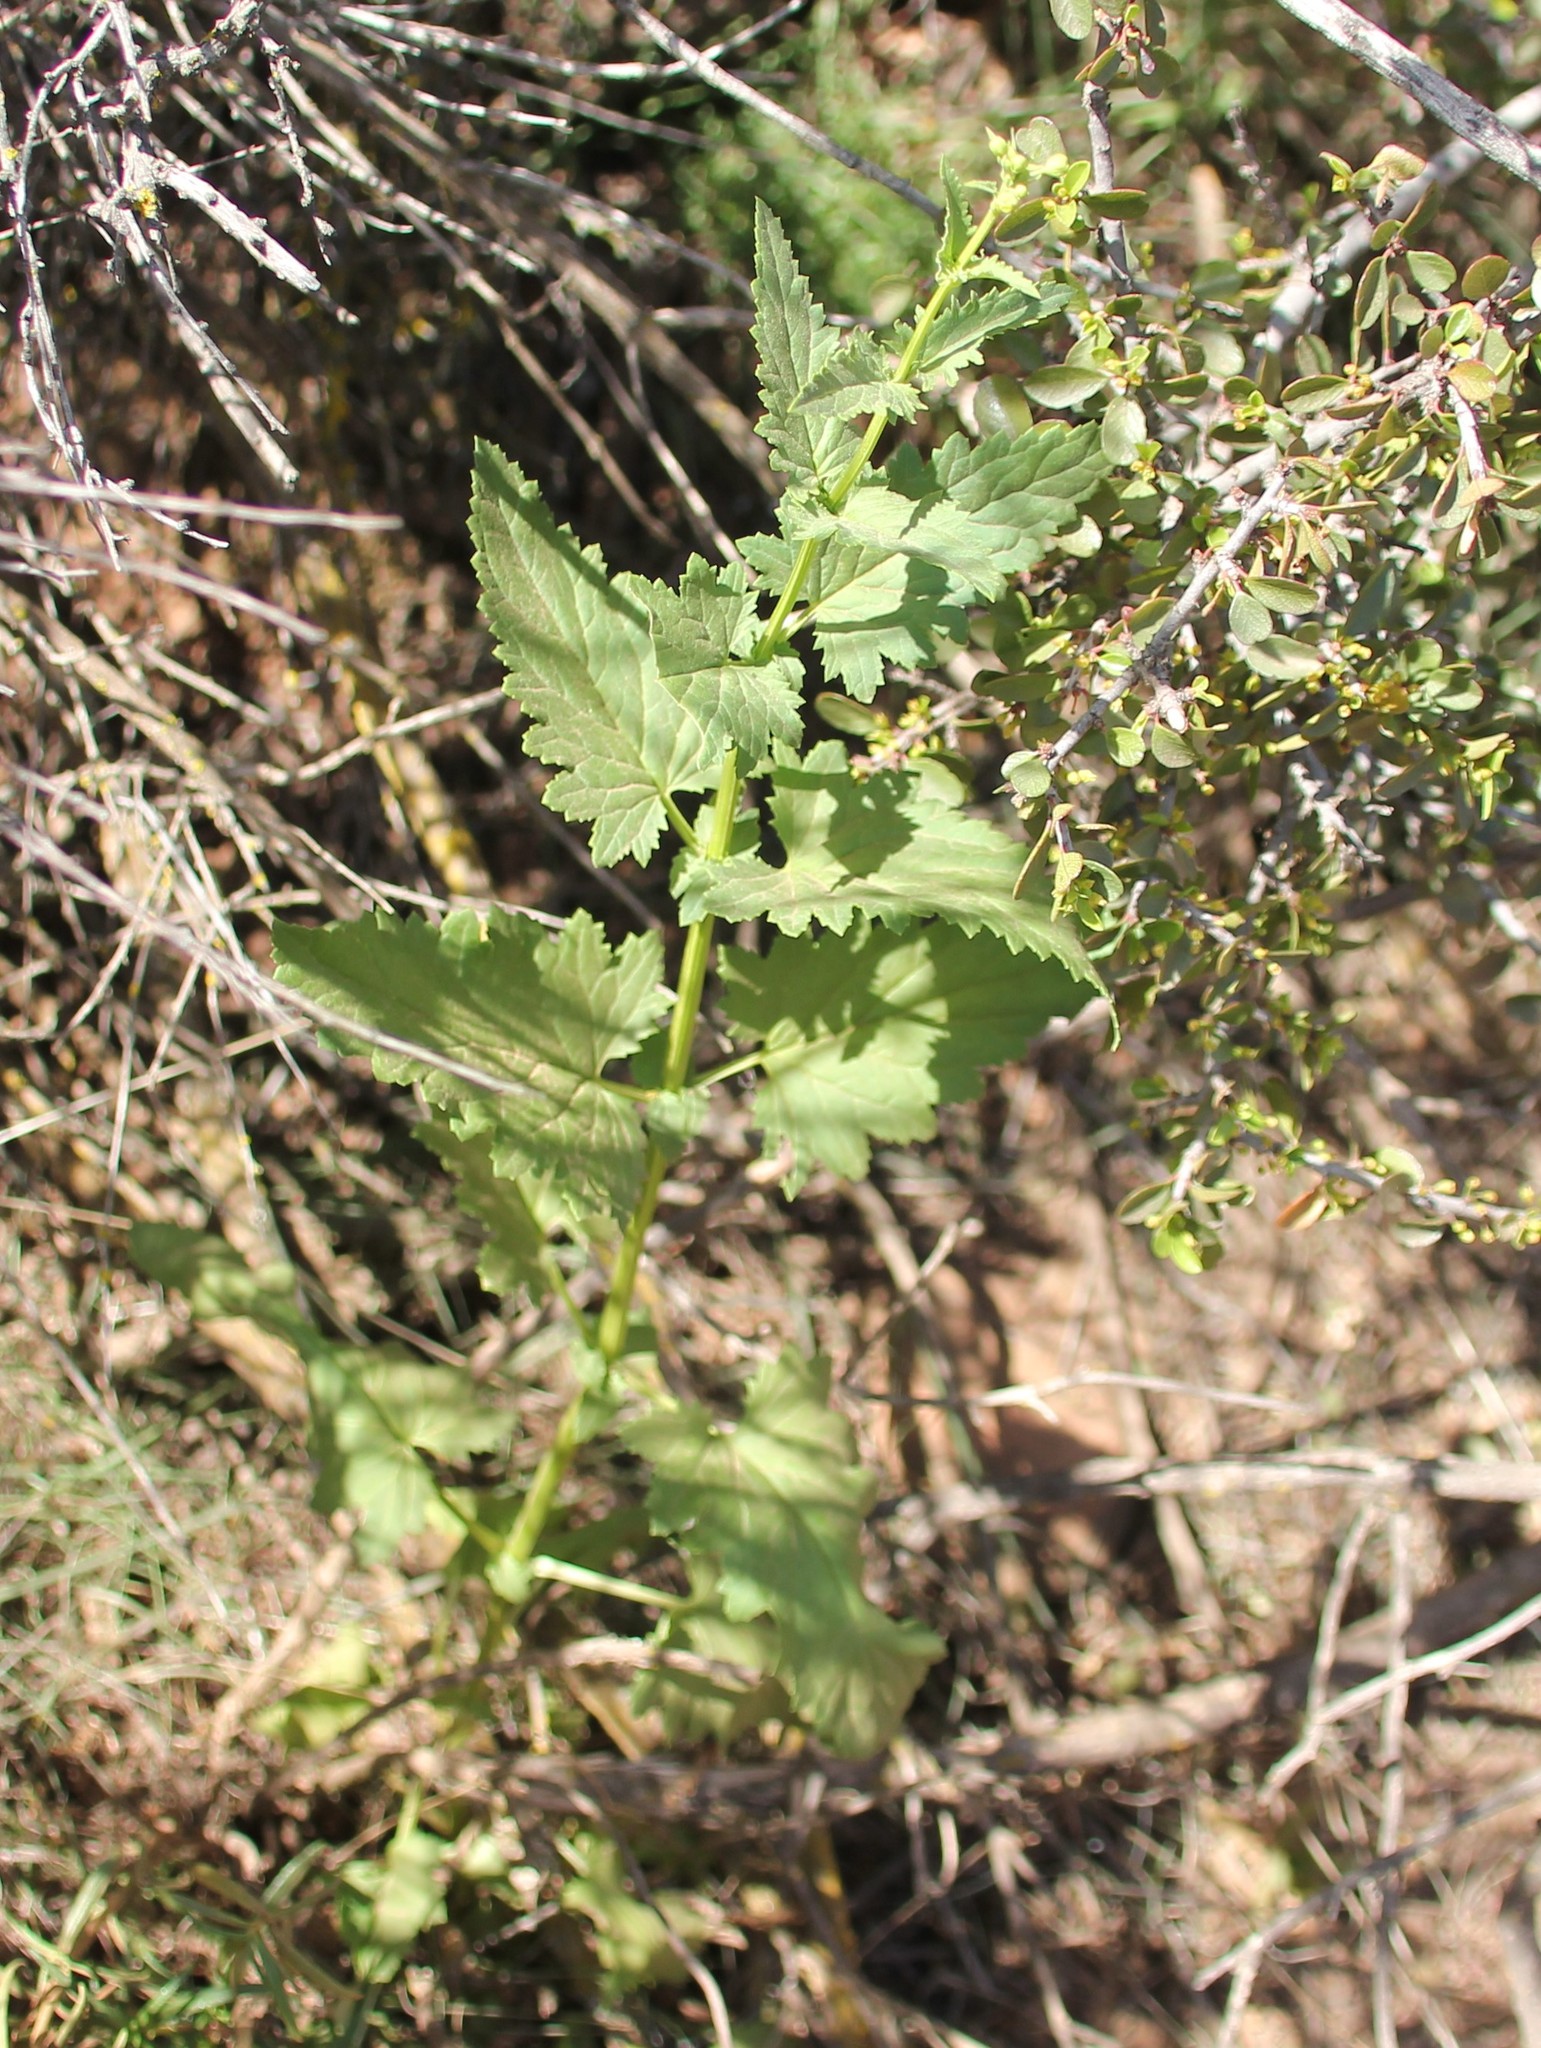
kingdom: Plantae
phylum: Tracheophyta
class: Magnoliopsida
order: Lamiales
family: Scrophulariaceae
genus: Scrophularia
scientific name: Scrophularia californica
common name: California figwort
